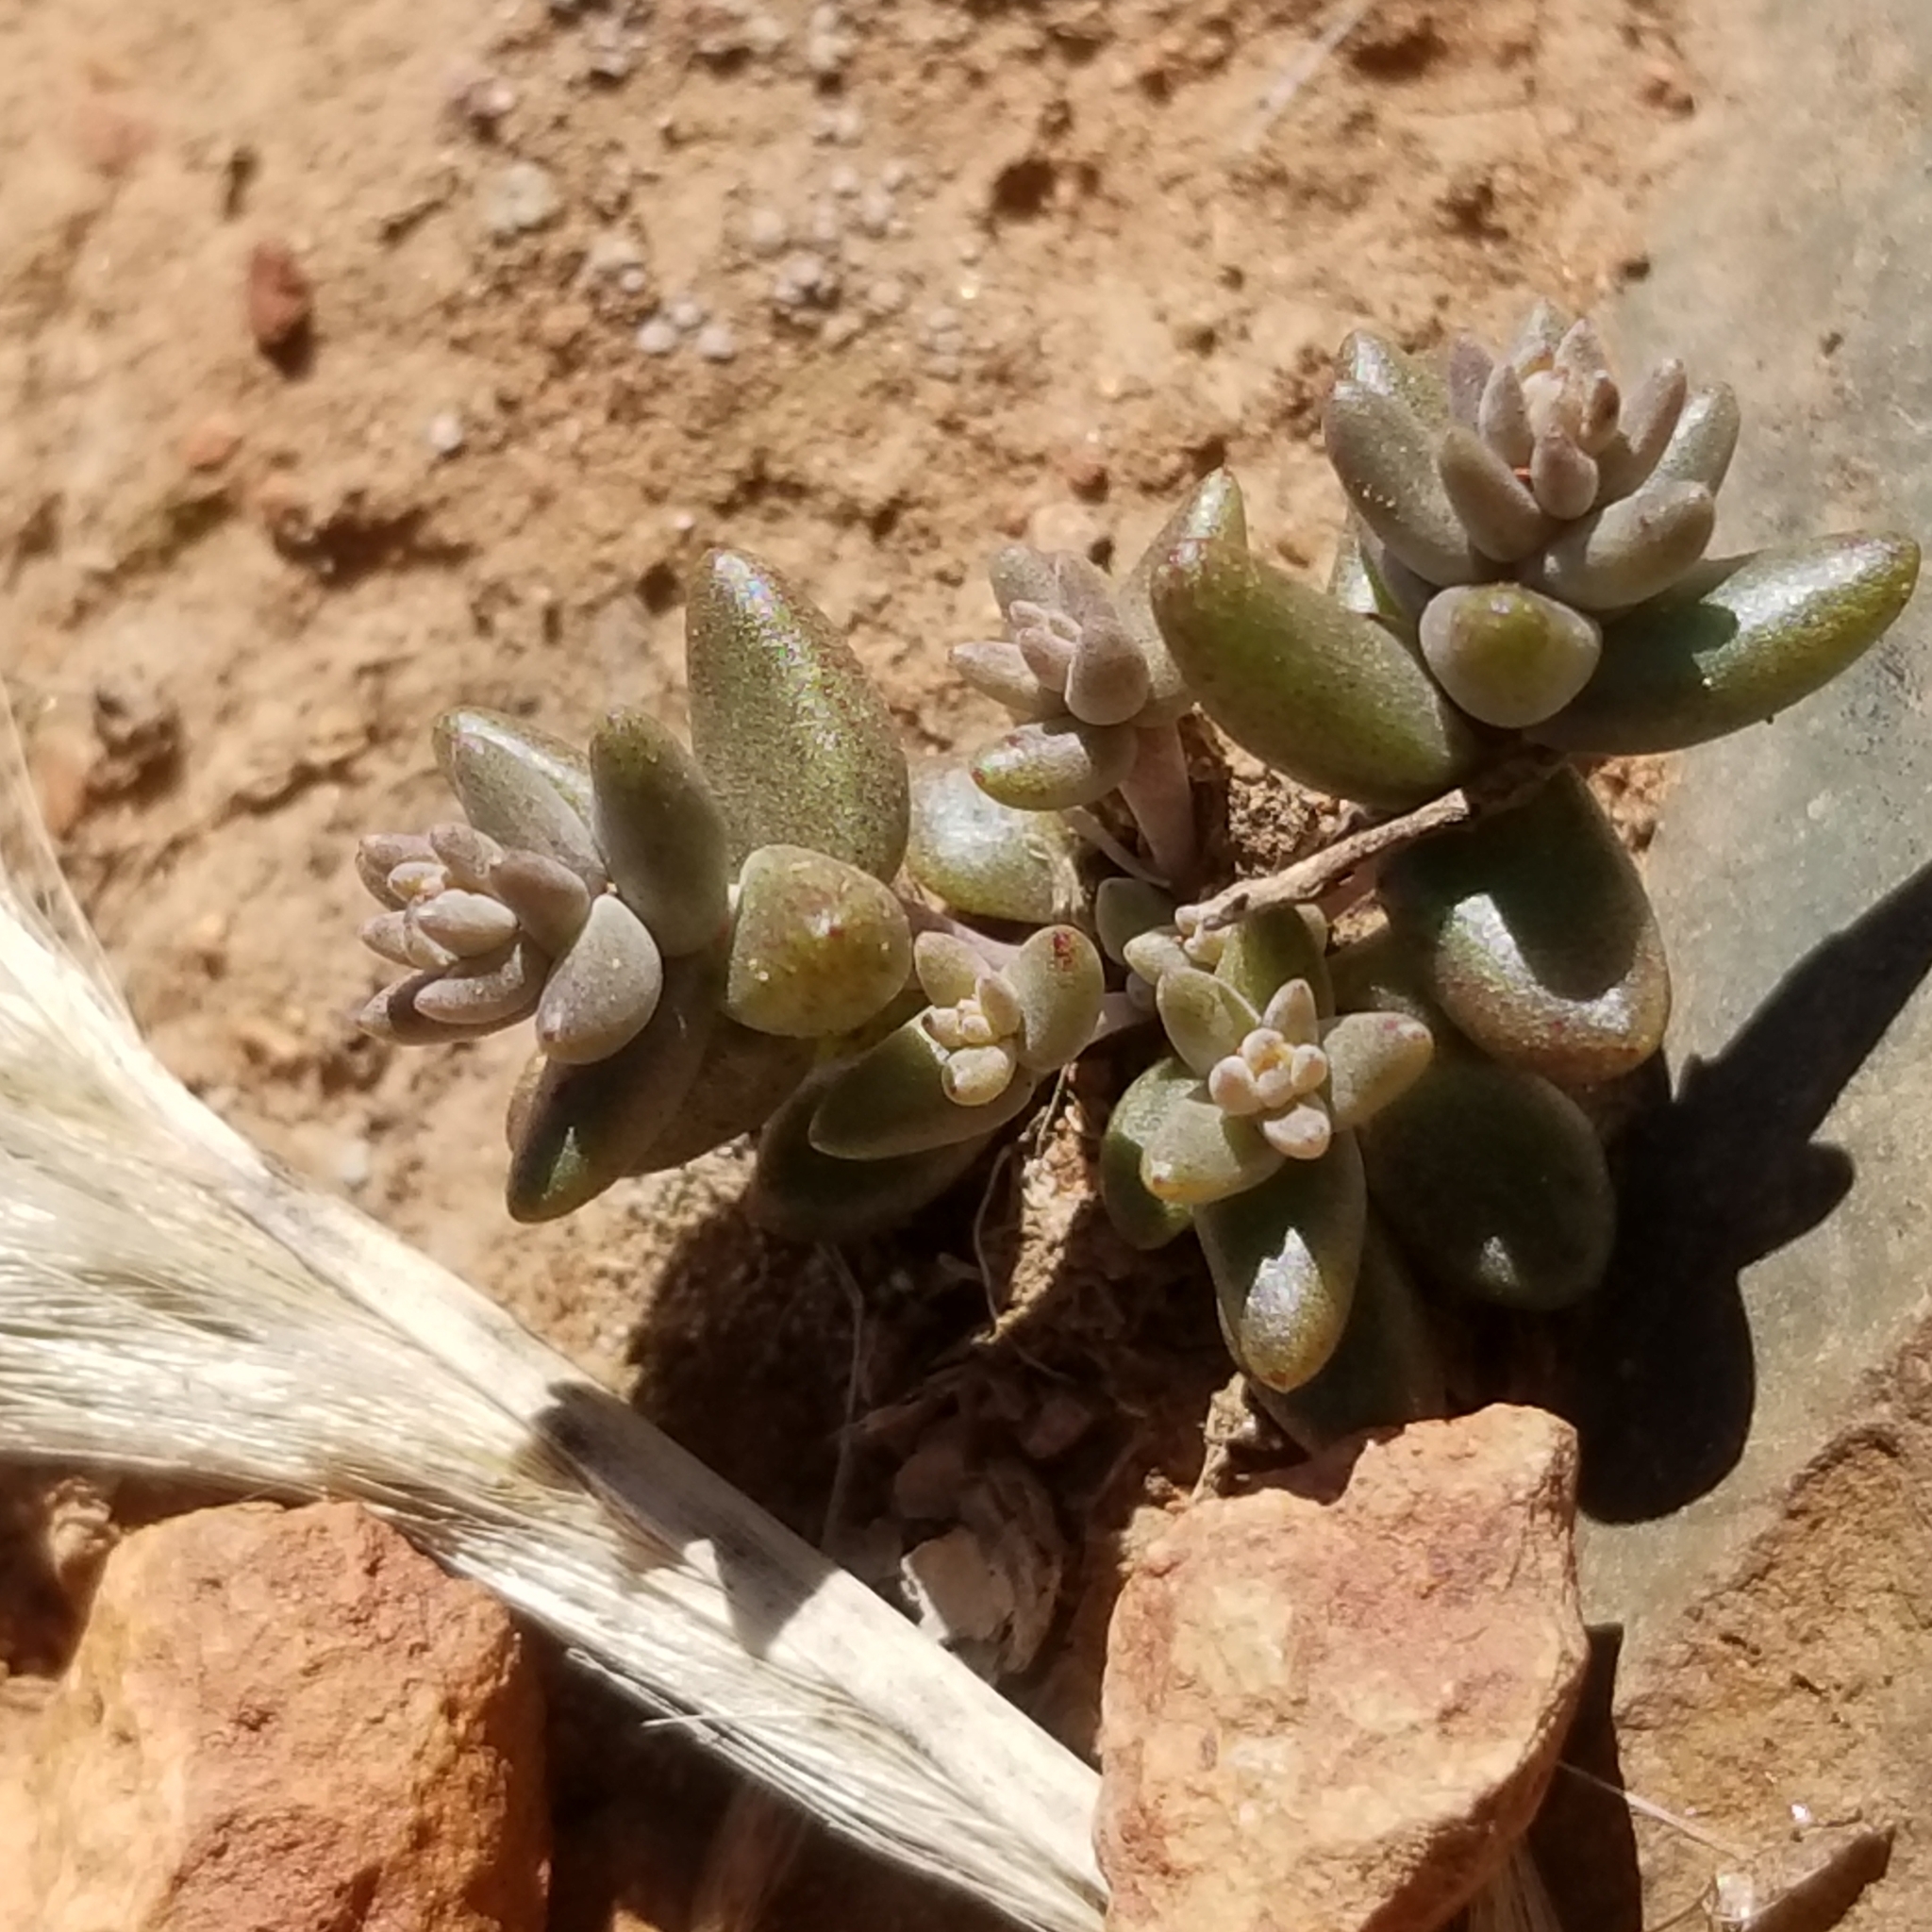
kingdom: Plantae
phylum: Tracheophyta
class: Magnoliopsida
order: Saxifragales
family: Crassulaceae
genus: Dudleya
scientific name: Dudleya variegata
